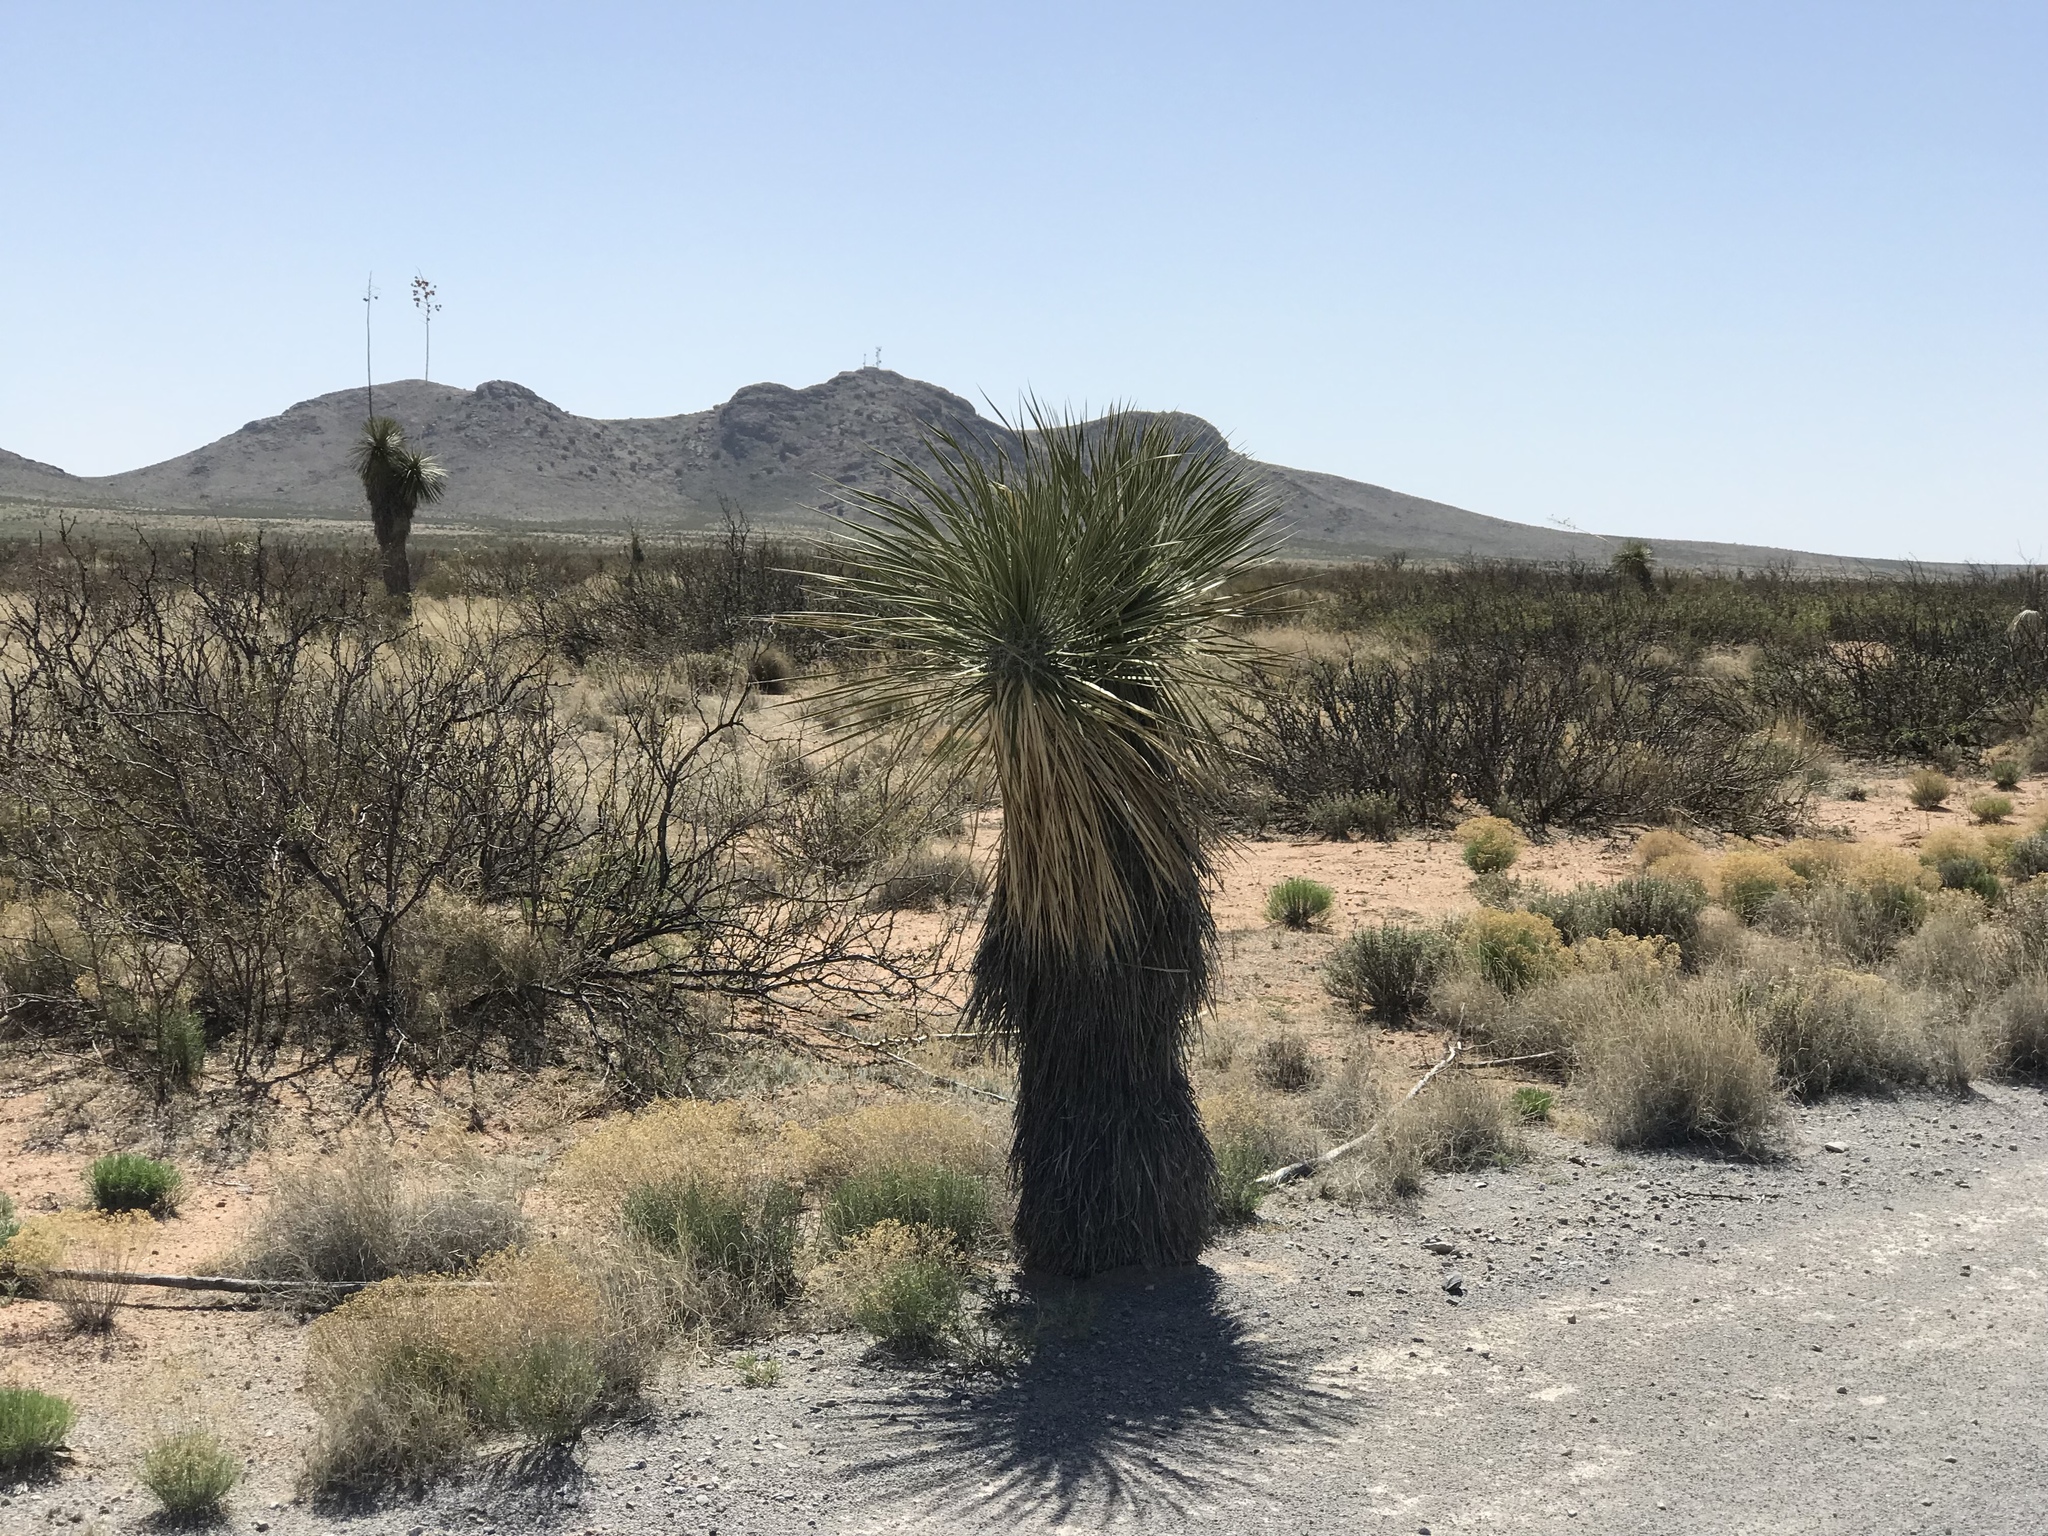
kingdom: Plantae
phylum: Tracheophyta
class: Liliopsida
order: Asparagales
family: Asparagaceae
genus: Yucca
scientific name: Yucca elata
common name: Palmella
